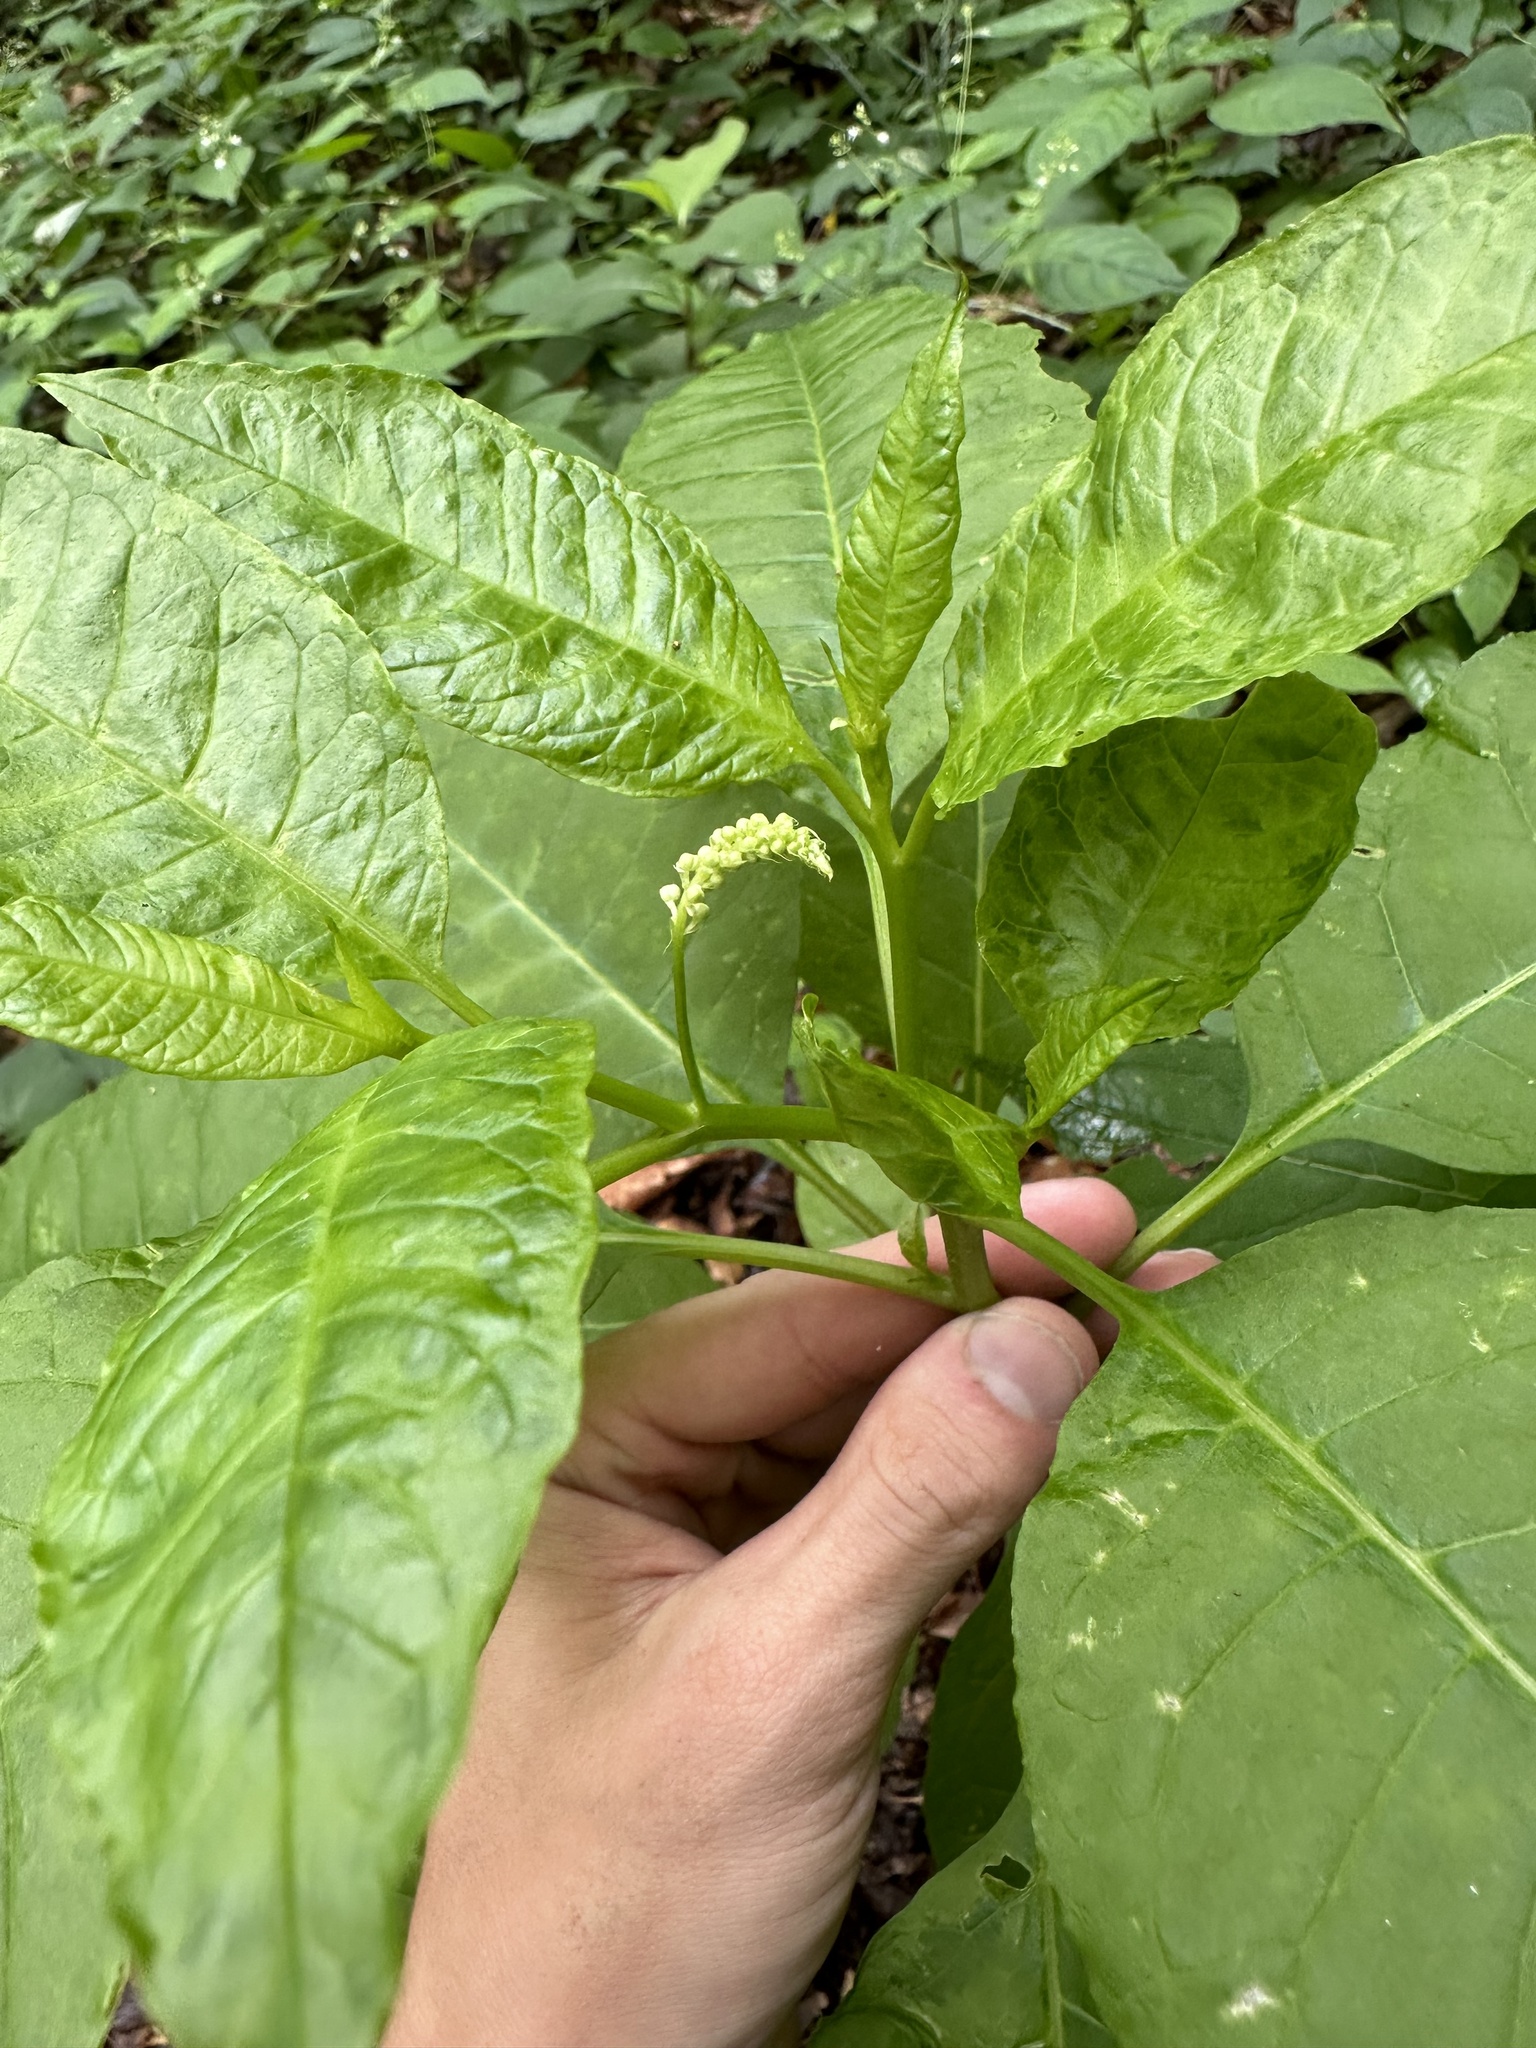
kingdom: Plantae
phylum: Tracheophyta
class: Magnoliopsida
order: Caryophyllales
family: Phytolaccaceae
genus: Phytolacca
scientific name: Phytolacca americana
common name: American pokeweed
